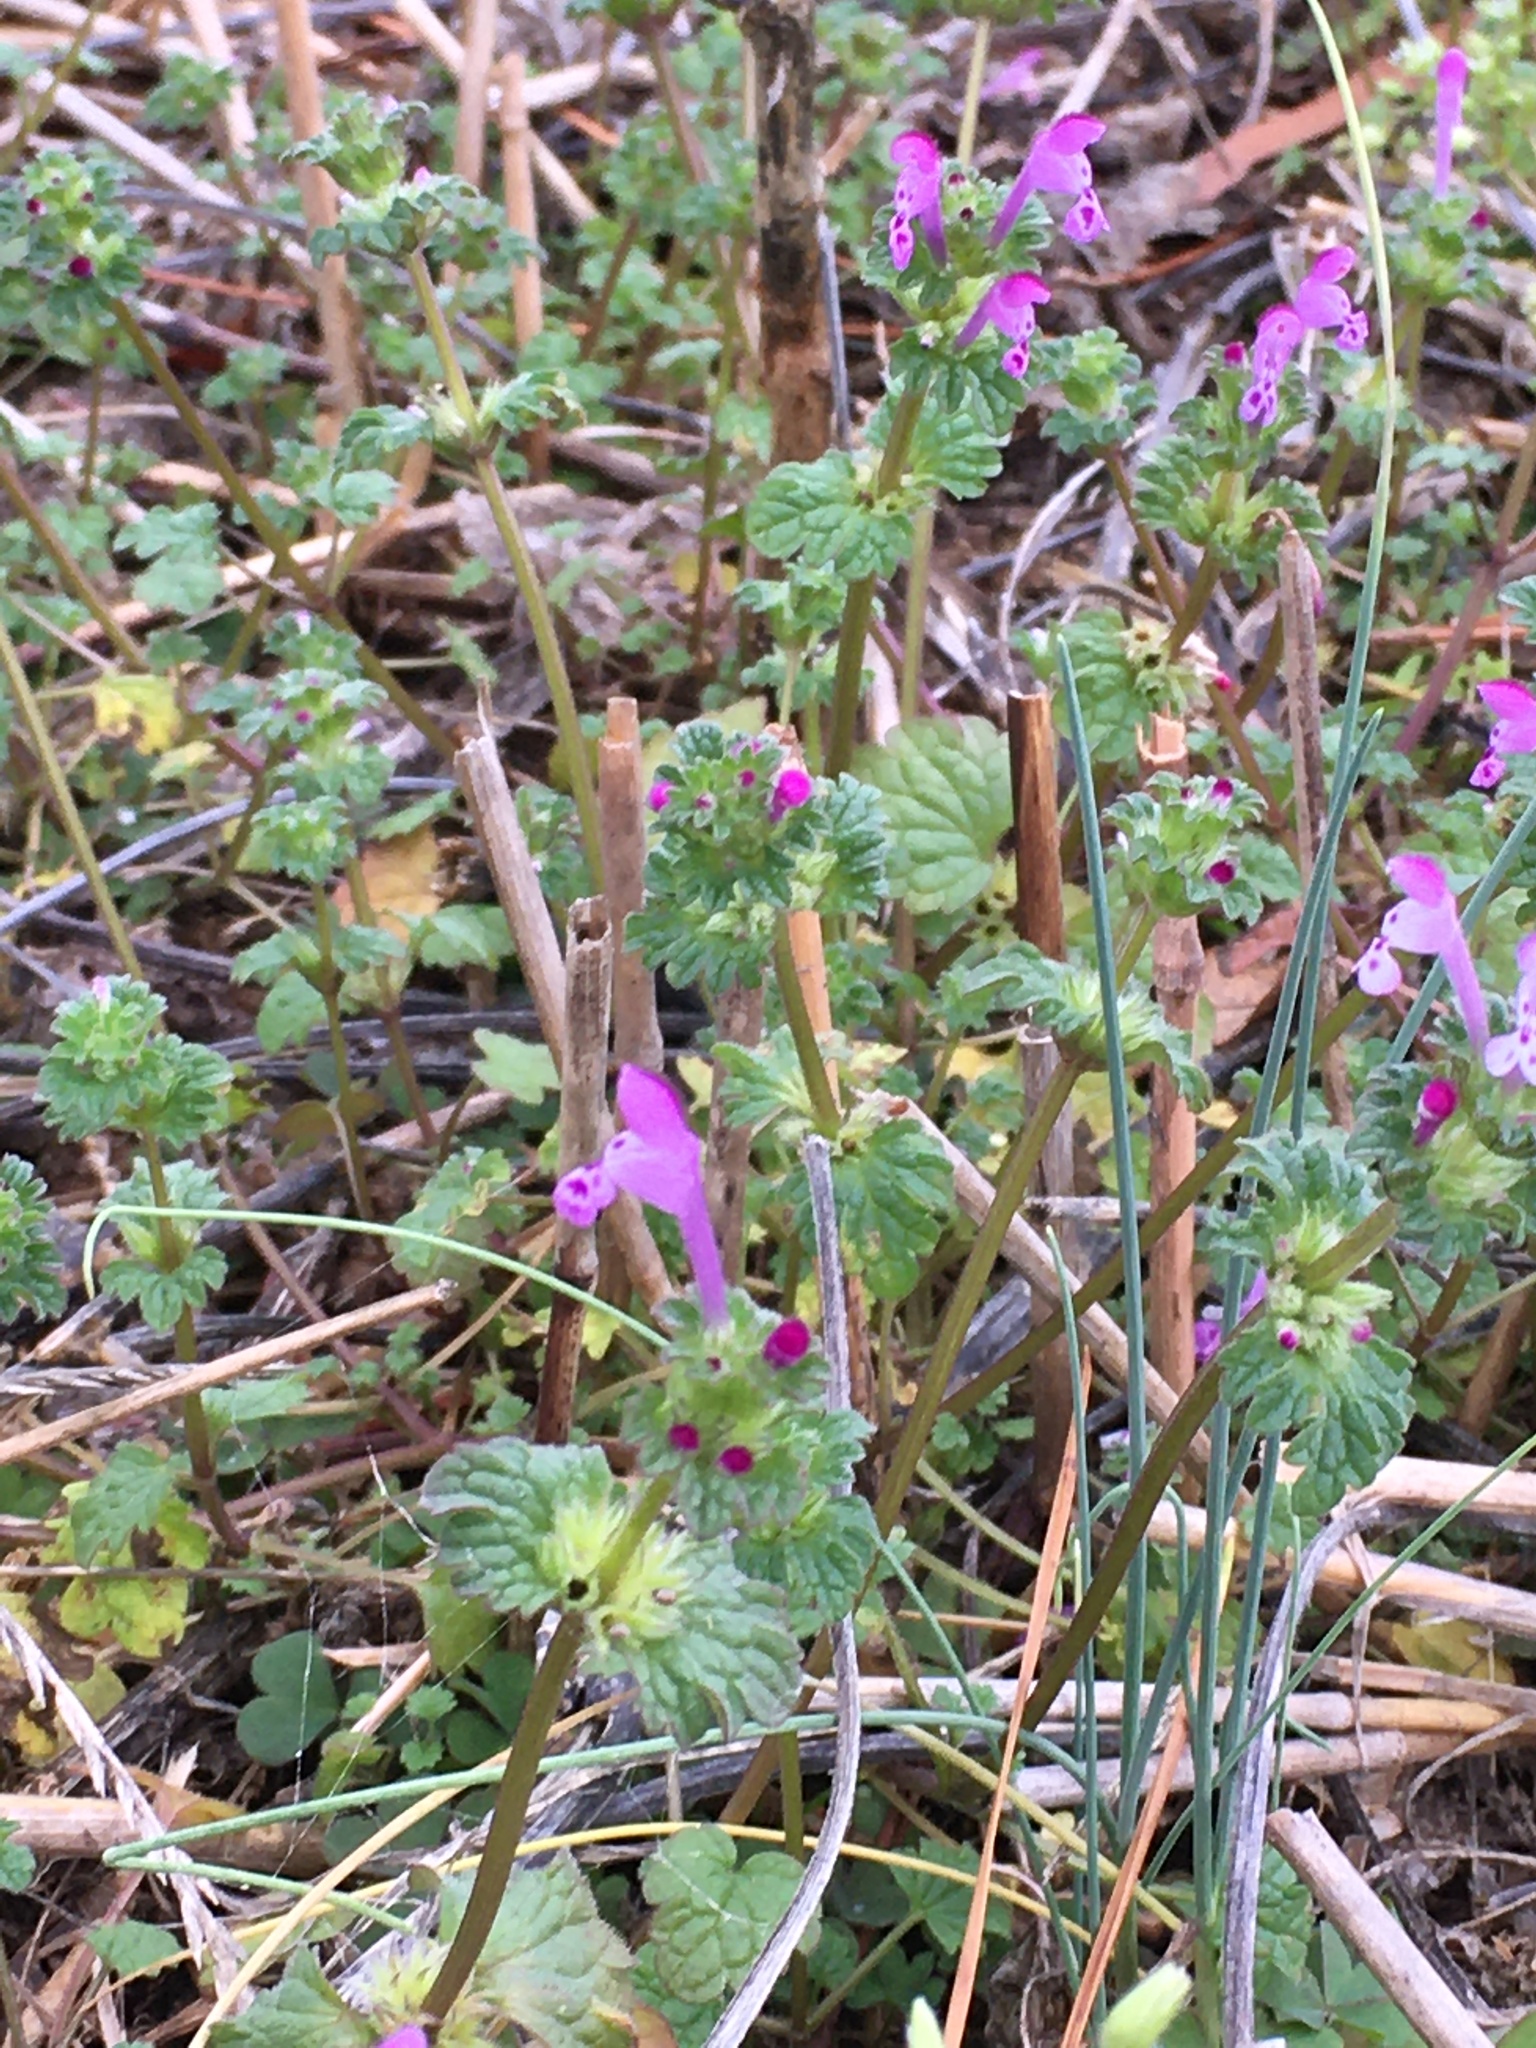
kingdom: Plantae
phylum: Tracheophyta
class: Magnoliopsida
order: Lamiales
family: Lamiaceae
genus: Lamium
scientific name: Lamium amplexicaule
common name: Henbit dead-nettle
